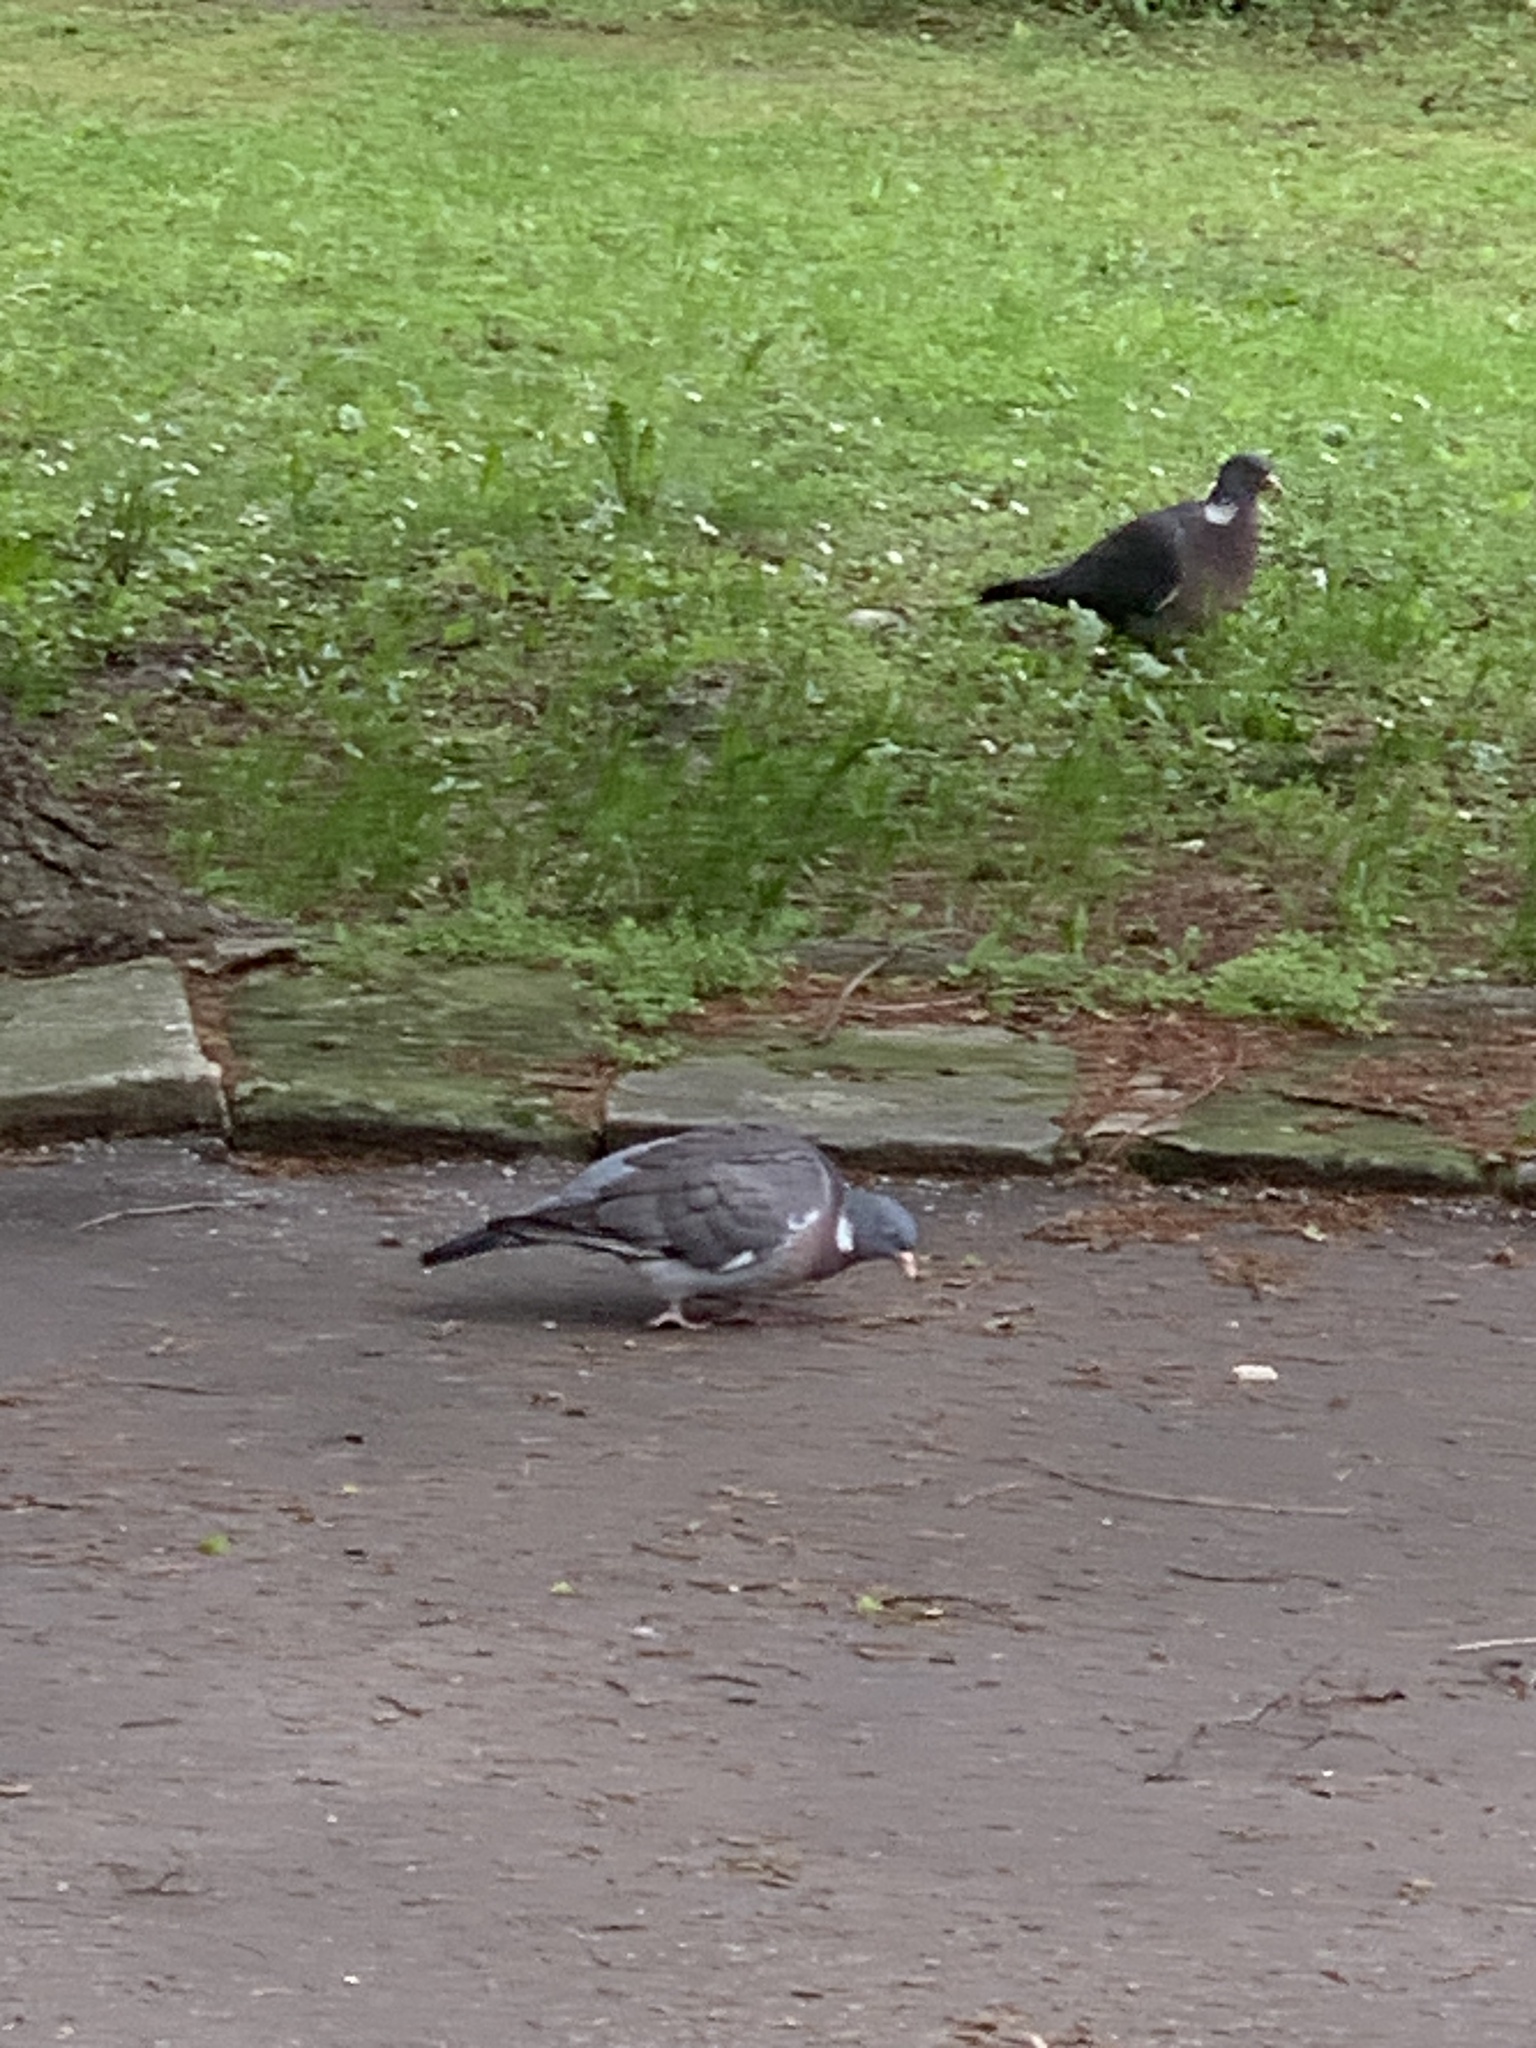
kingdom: Animalia
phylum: Chordata
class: Aves
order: Columbiformes
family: Columbidae
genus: Columba
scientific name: Columba palumbus
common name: Common wood pigeon
